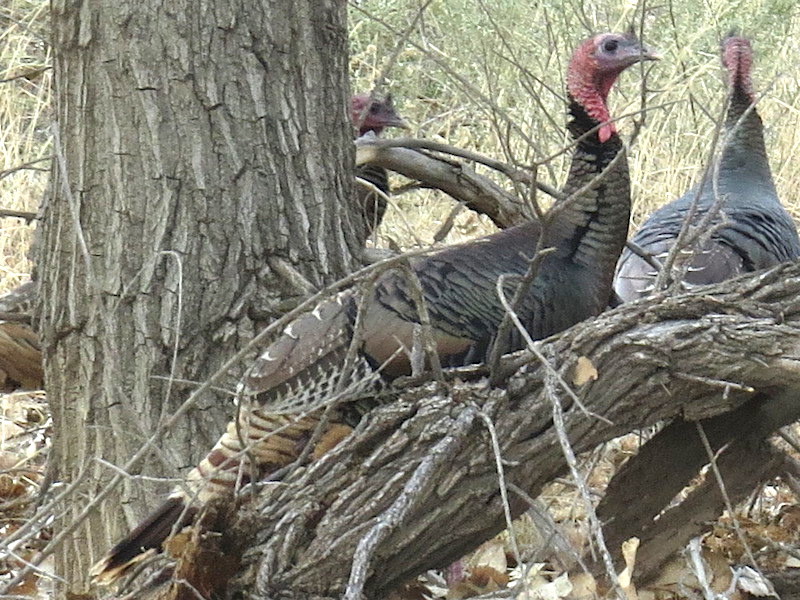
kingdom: Animalia
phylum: Chordata
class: Aves
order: Galliformes
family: Phasianidae
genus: Meleagris
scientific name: Meleagris gallopavo
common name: Wild turkey
